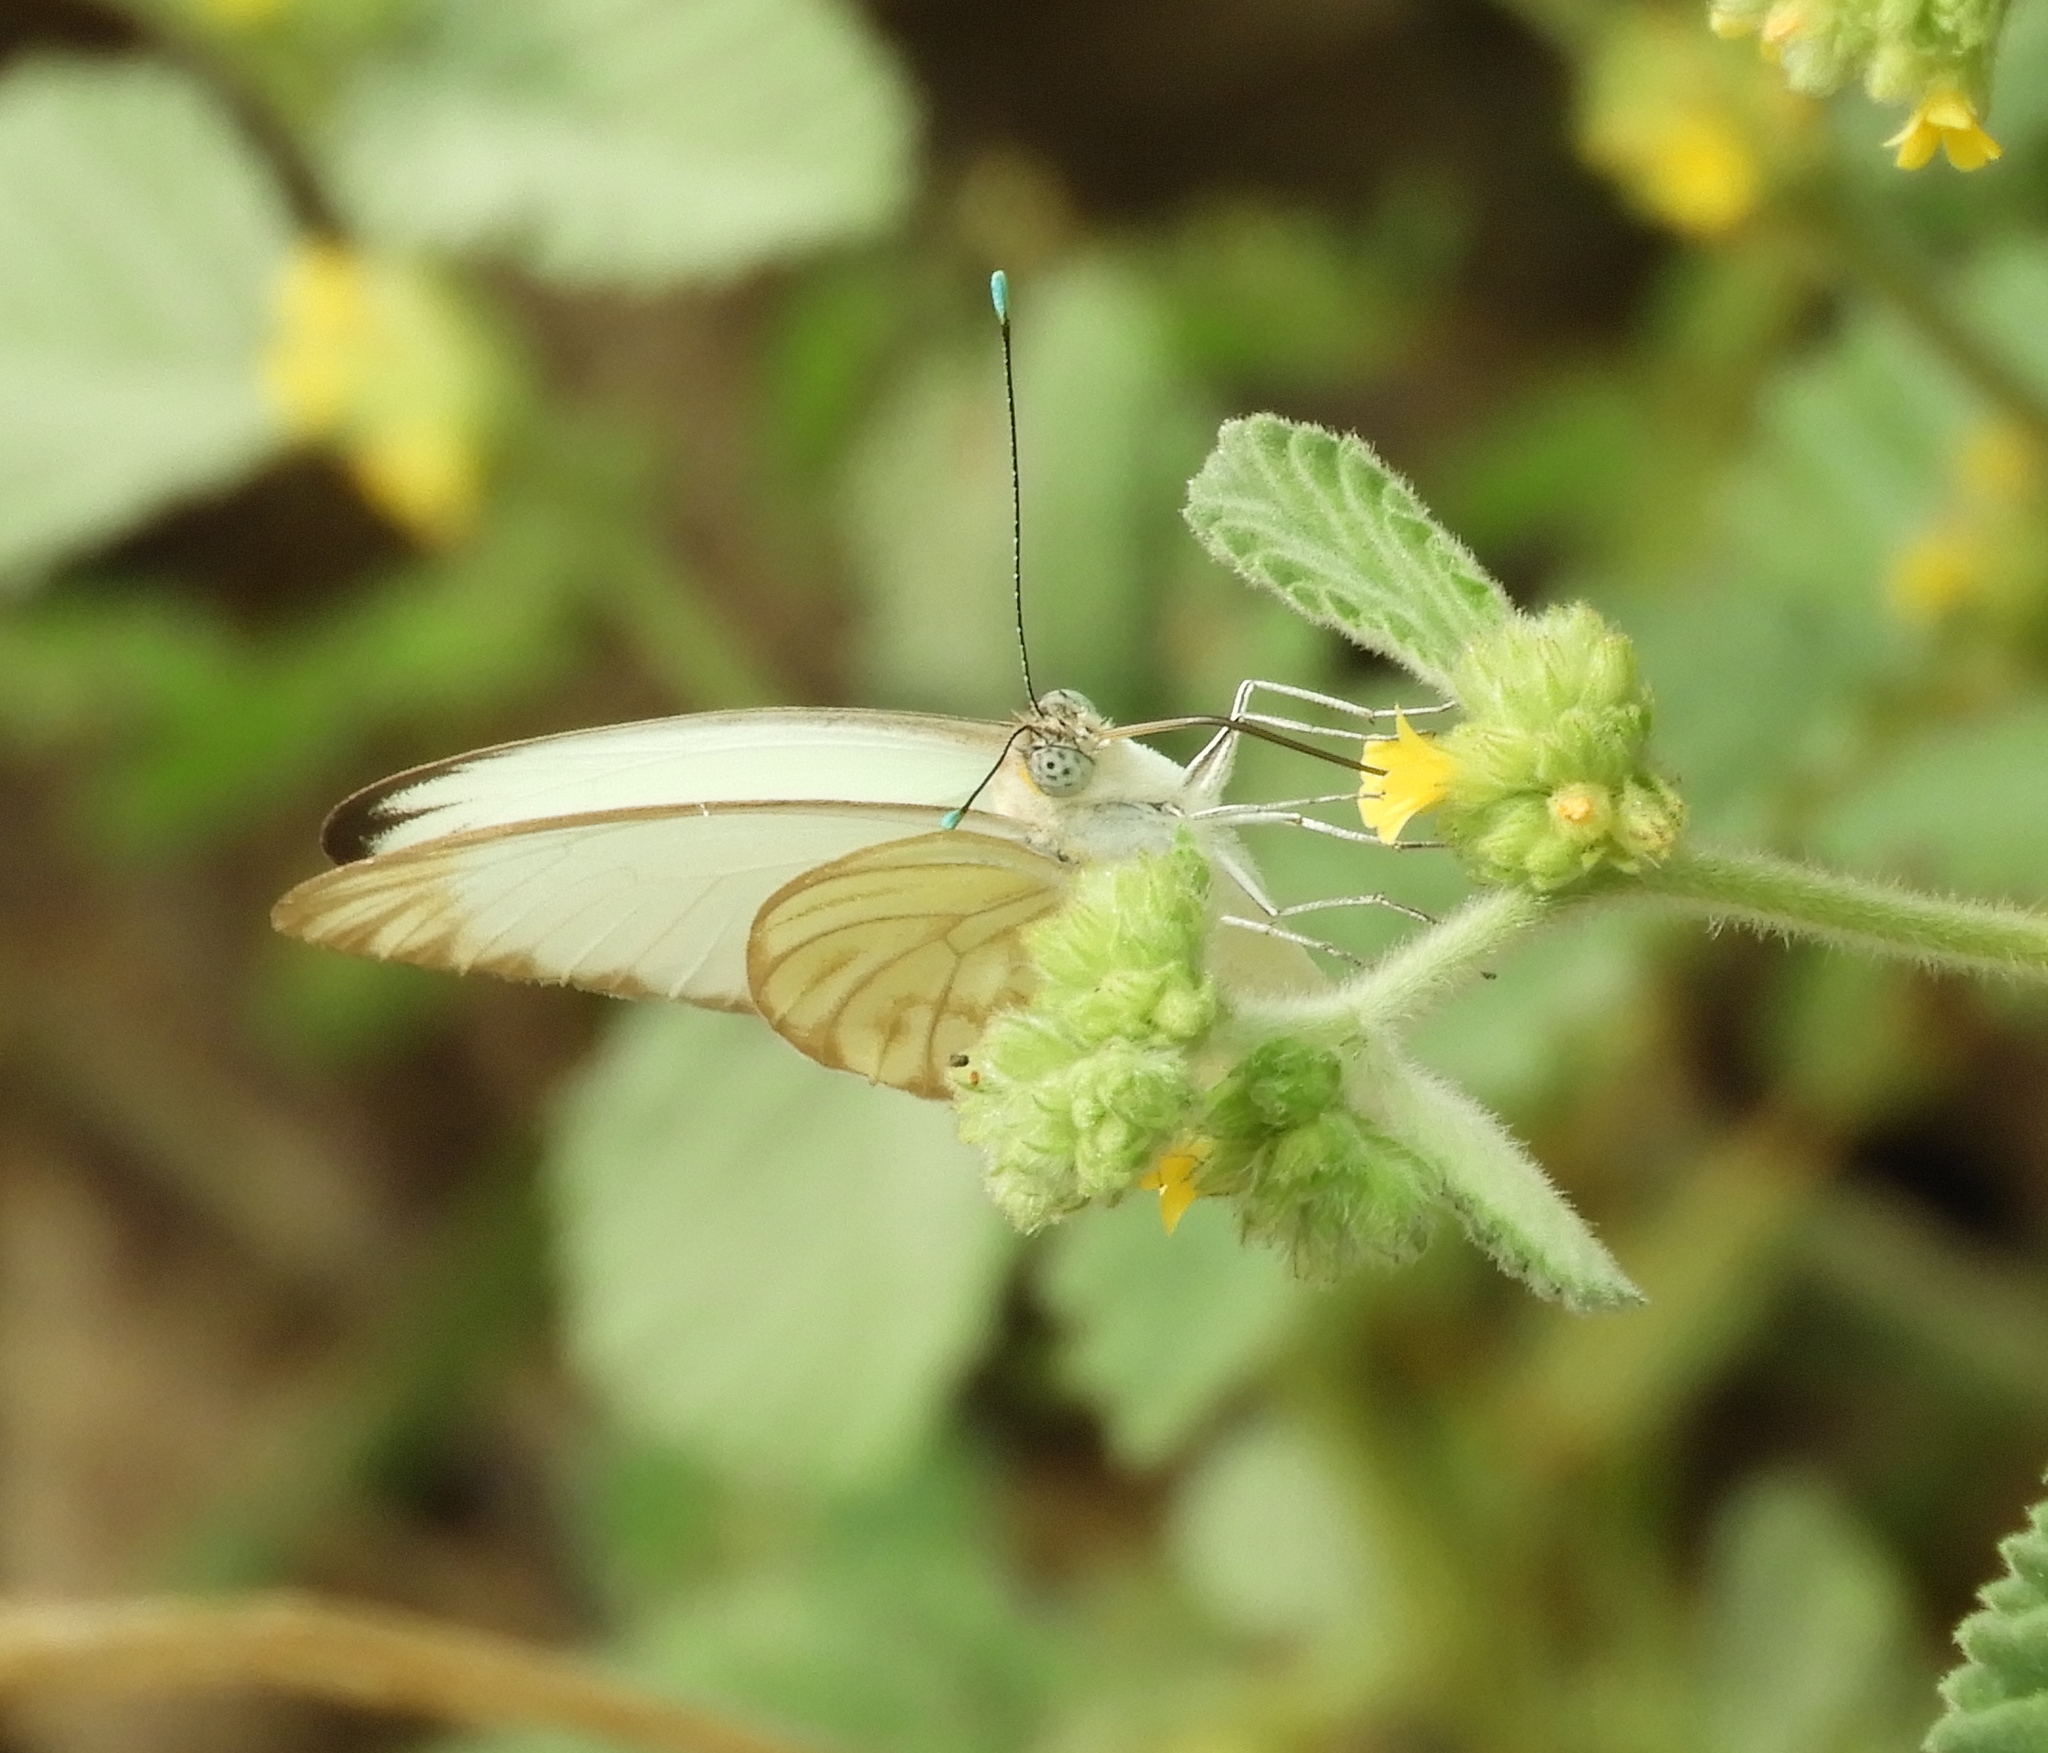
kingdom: Animalia
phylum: Arthropoda
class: Insecta
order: Lepidoptera
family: Pieridae
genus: Ascia
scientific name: Ascia monuste
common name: Great southern white
